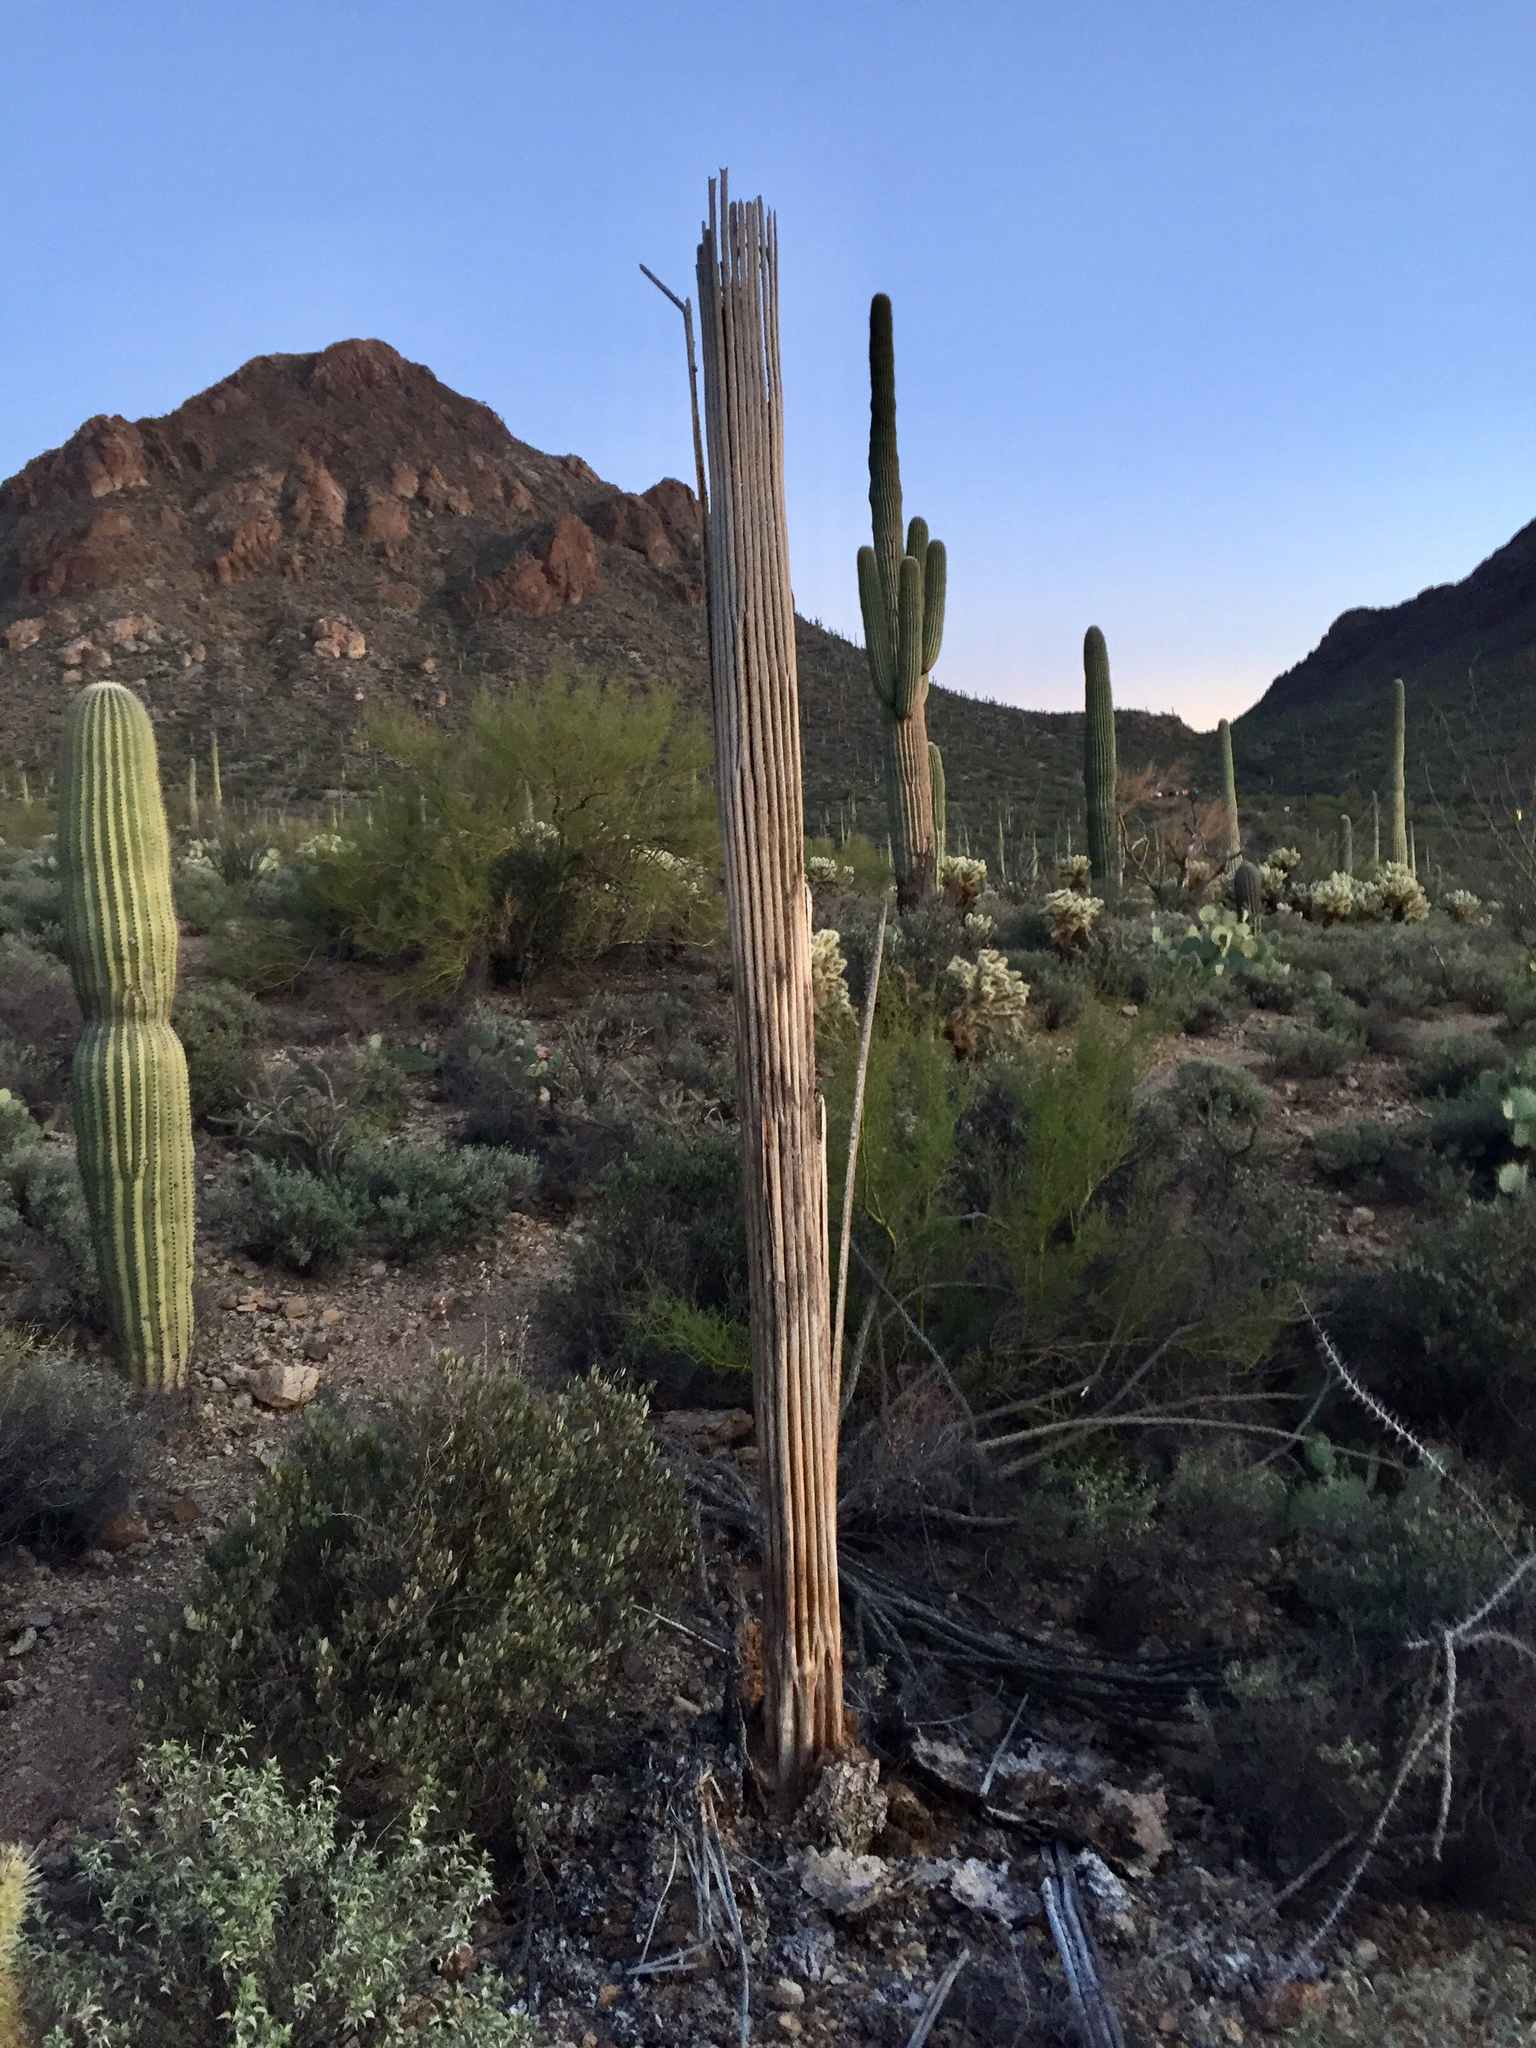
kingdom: Plantae
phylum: Tracheophyta
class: Magnoliopsida
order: Caryophyllales
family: Cactaceae
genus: Carnegiea
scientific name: Carnegiea gigantea
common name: Saguaro
